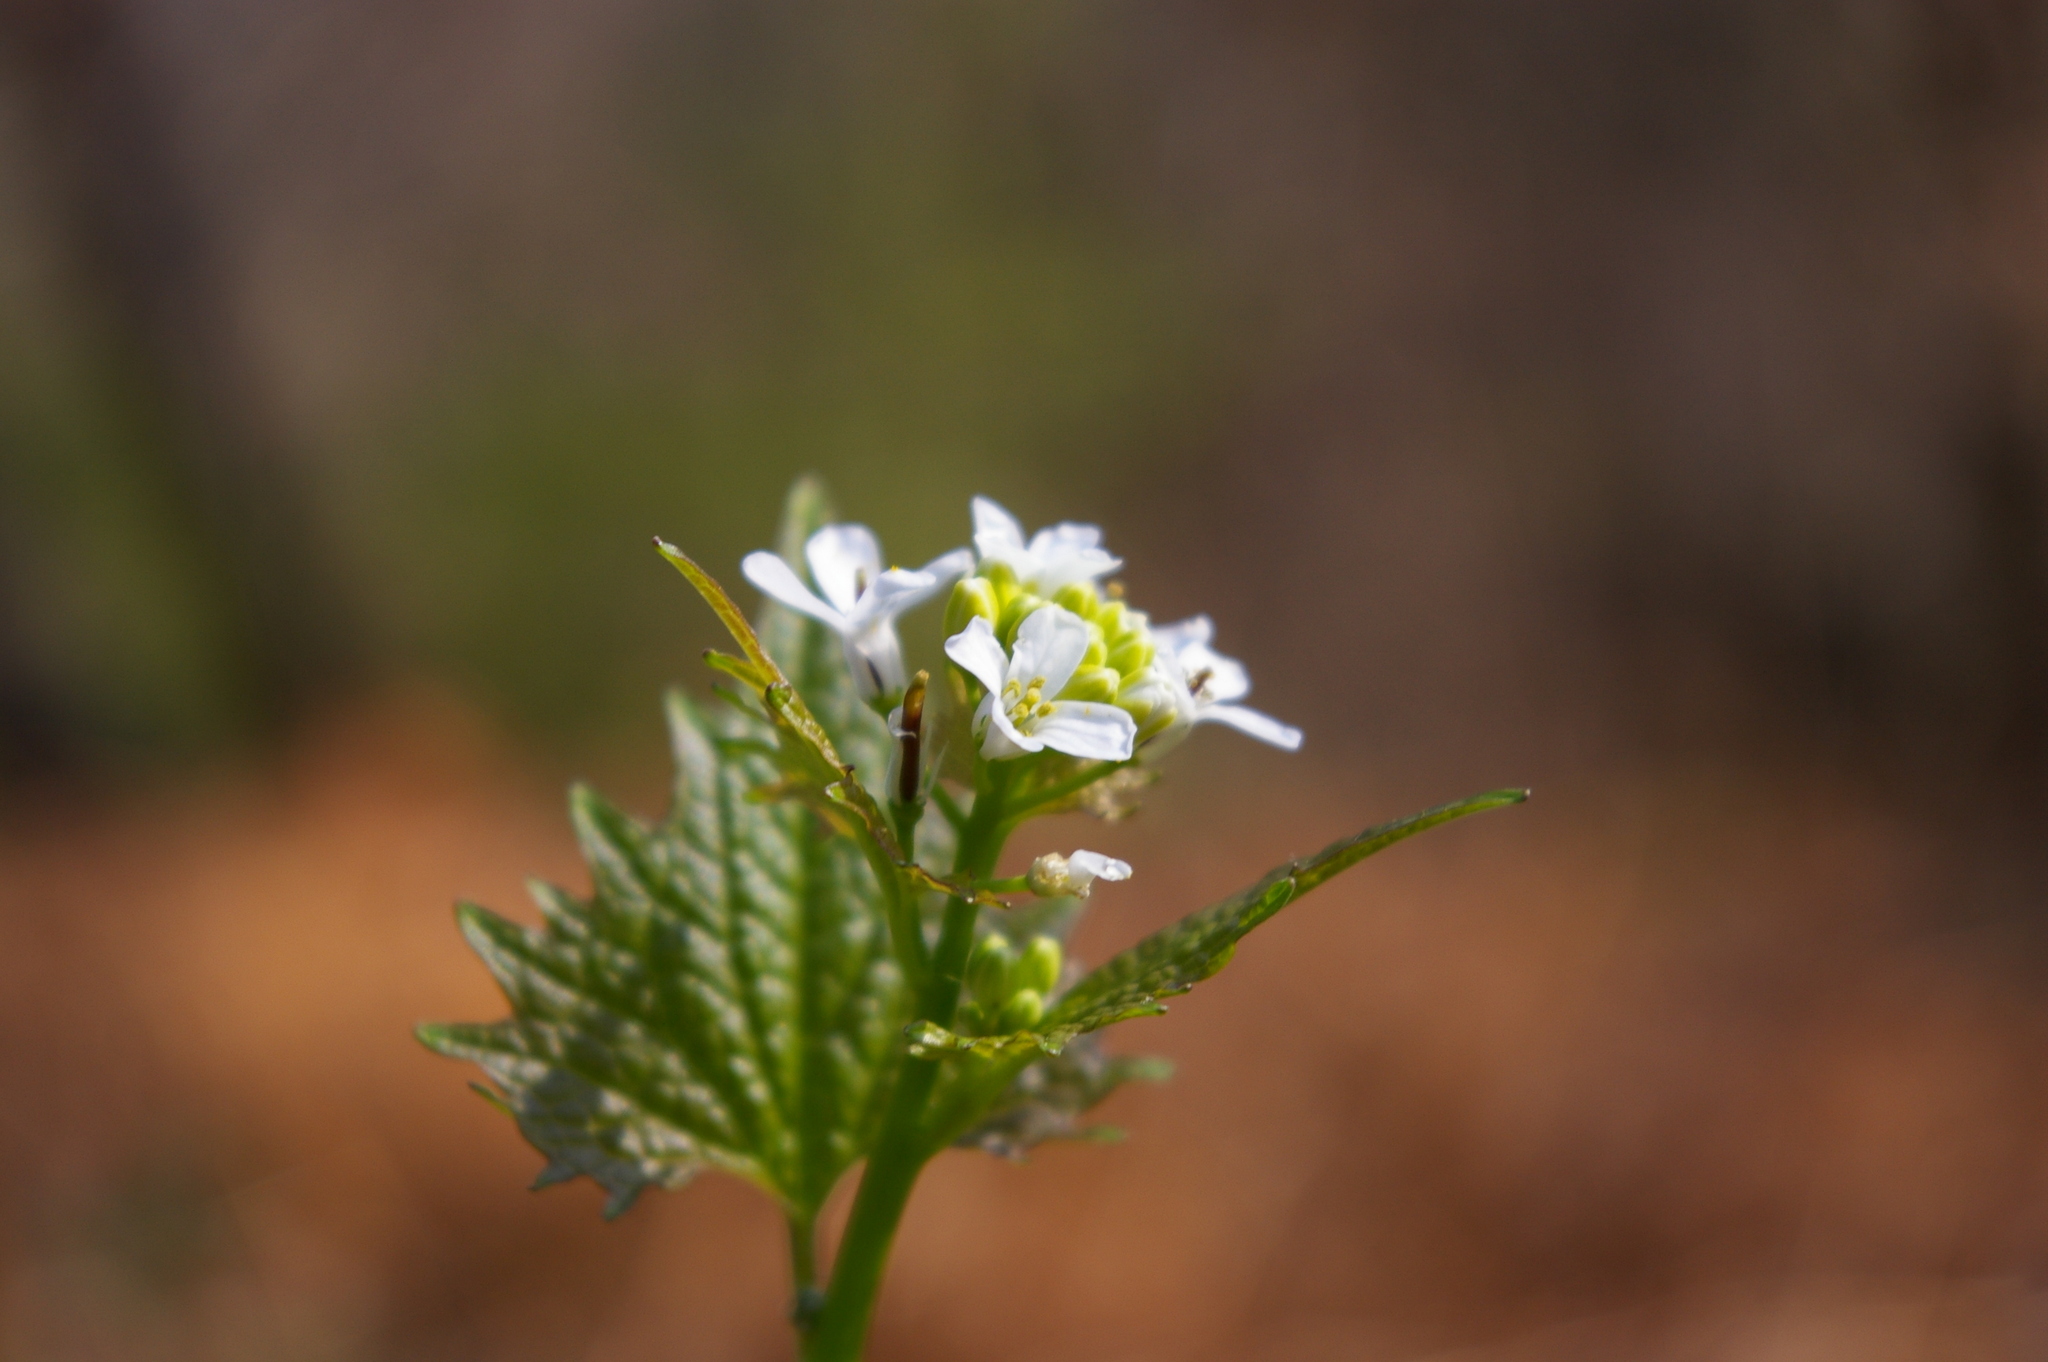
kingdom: Plantae
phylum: Tracheophyta
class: Magnoliopsida
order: Brassicales
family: Brassicaceae
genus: Alliaria
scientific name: Alliaria petiolata
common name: Garlic mustard
